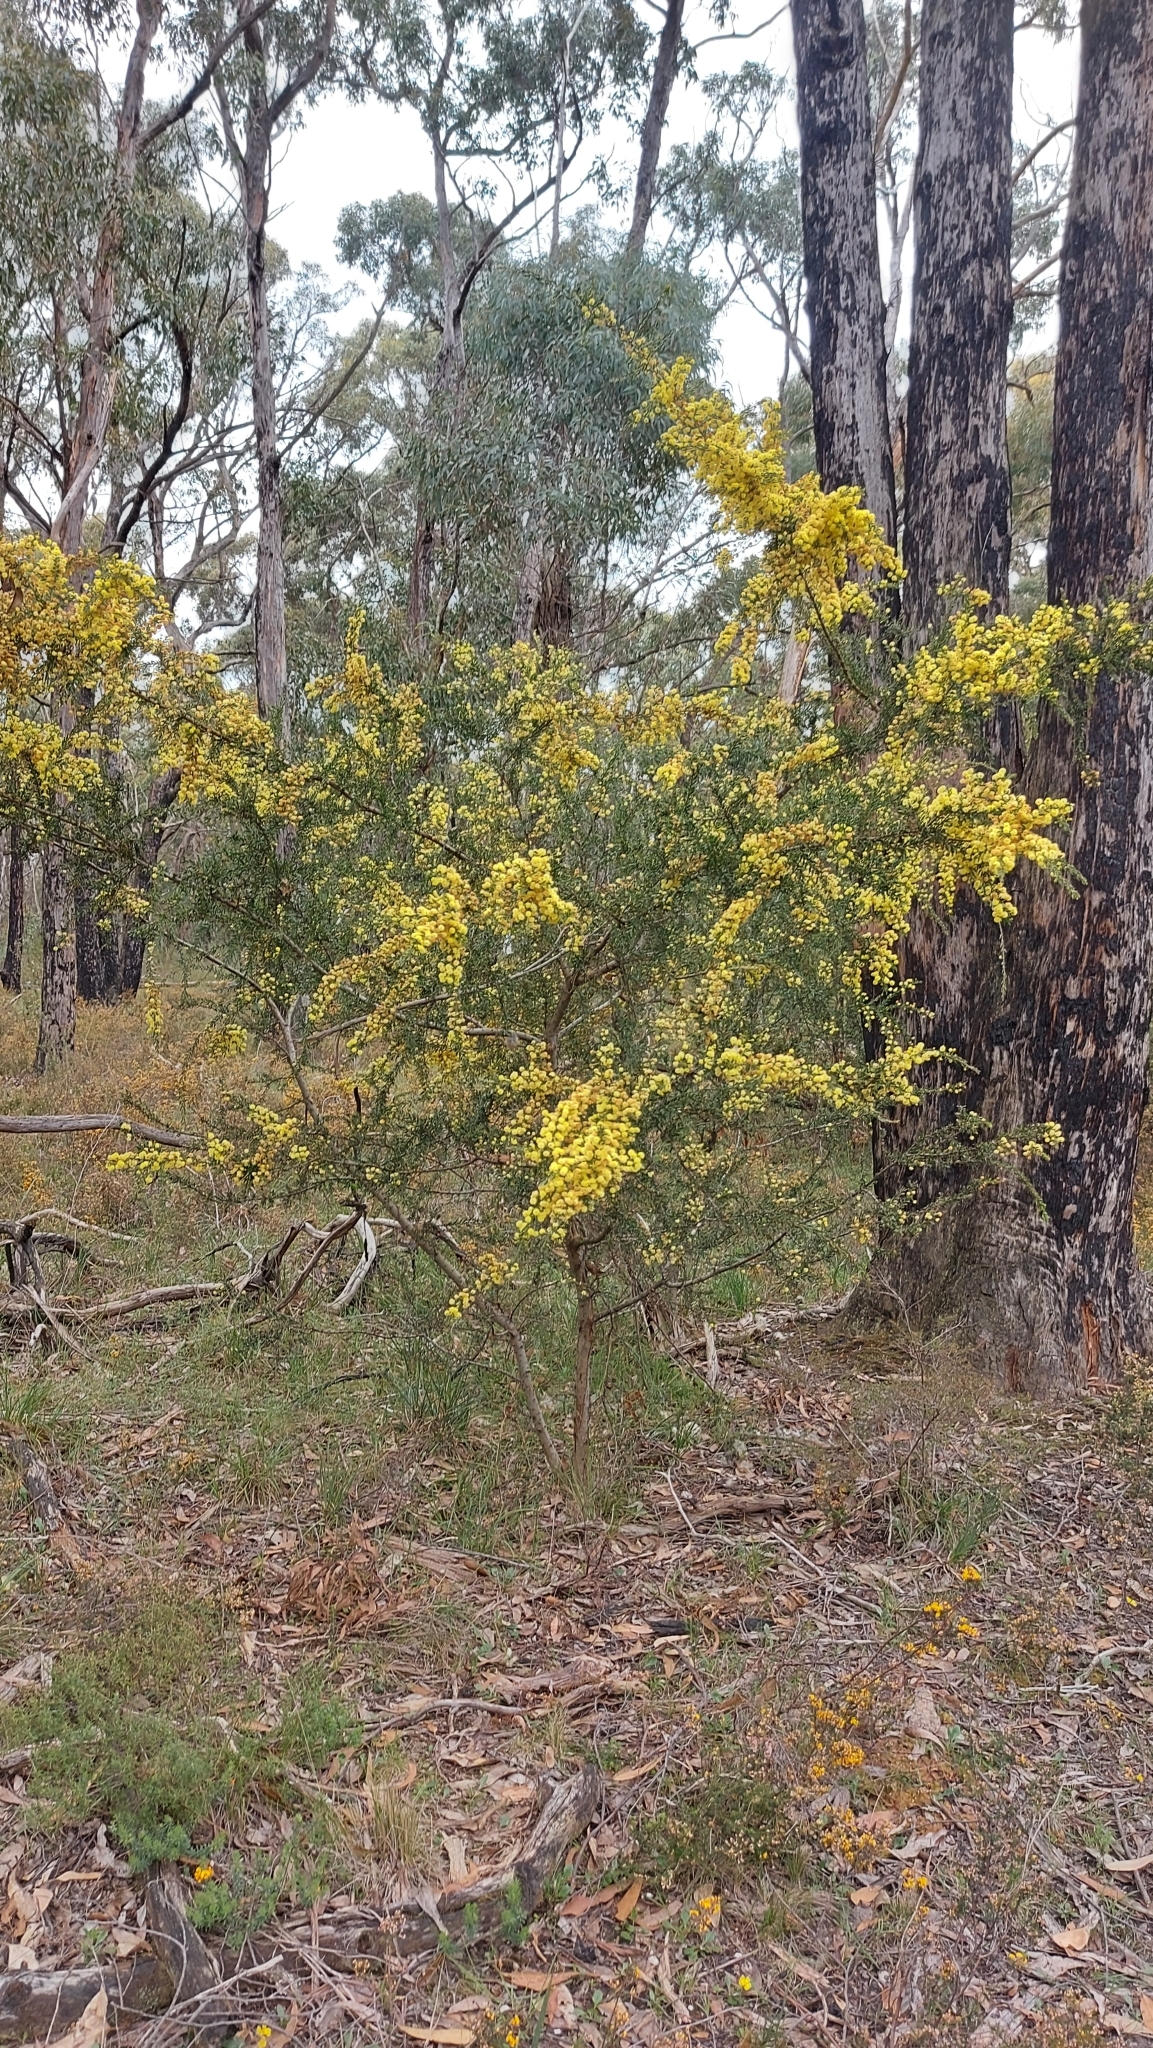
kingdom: Plantae
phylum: Tracheophyta
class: Magnoliopsida
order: Fabales
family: Fabaceae
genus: Acacia
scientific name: Acacia paradoxa
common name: Paradox acacia
